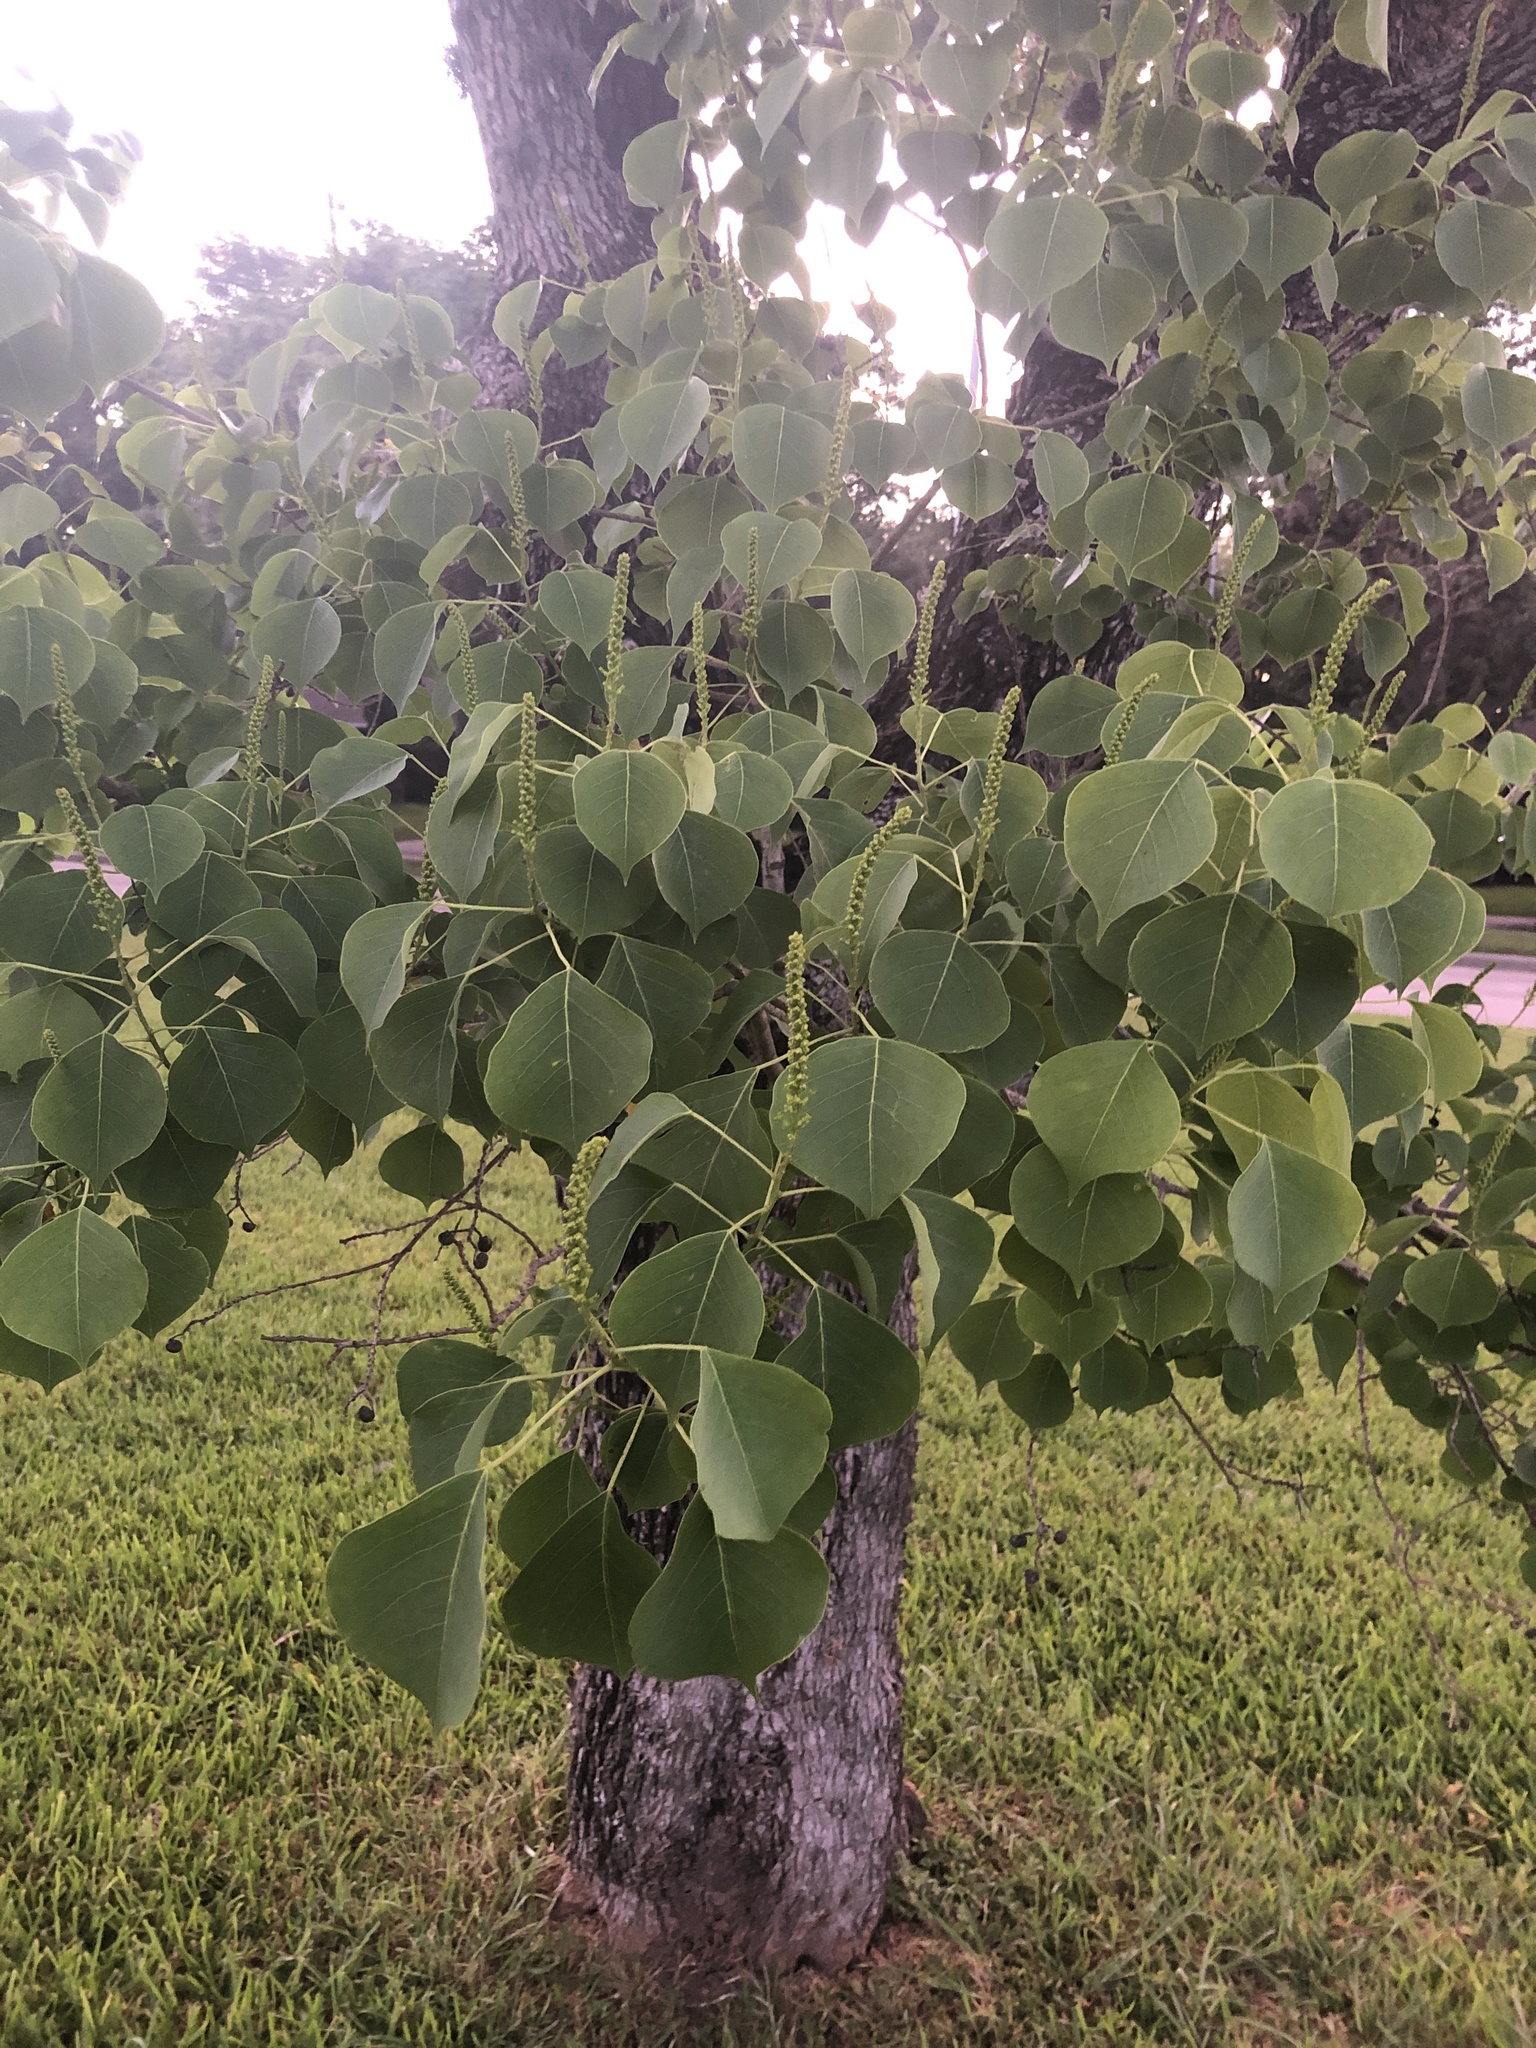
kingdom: Plantae
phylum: Tracheophyta
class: Magnoliopsida
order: Malpighiales
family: Euphorbiaceae
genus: Triadica
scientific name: Triadica sebifera
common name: Chinese tallow
